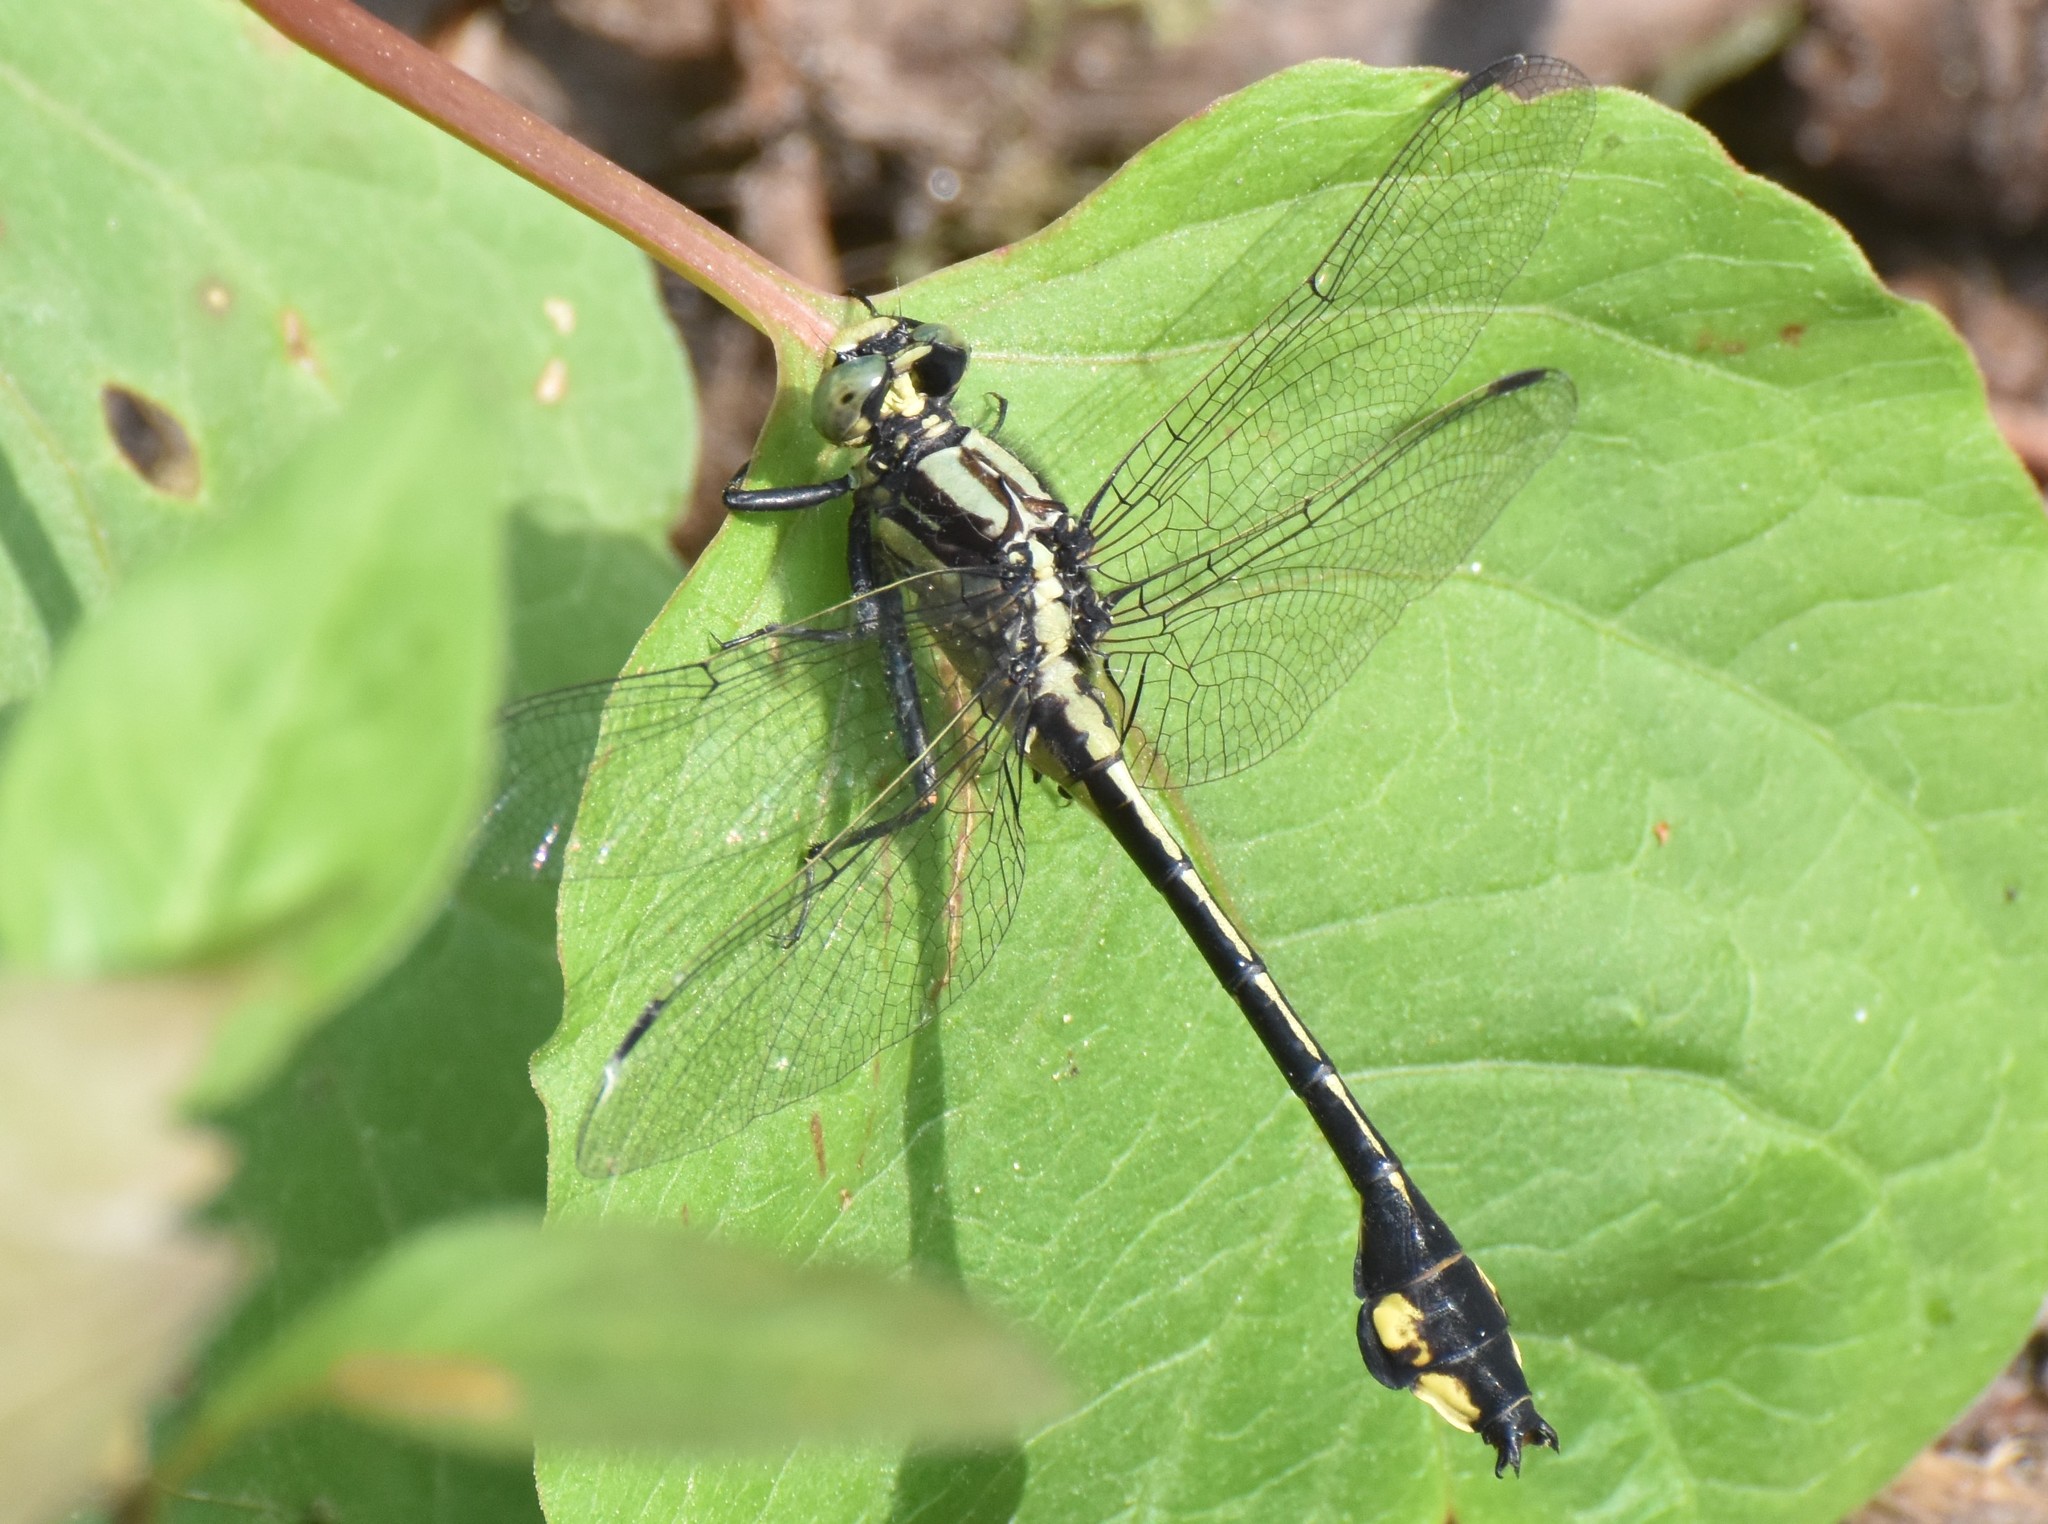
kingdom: Animalia
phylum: Arthropoda
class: Insecta
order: Odonata
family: Gomphidae
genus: Gomphurus
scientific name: Gomphurus ventricosus
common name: Skillet clubtail
